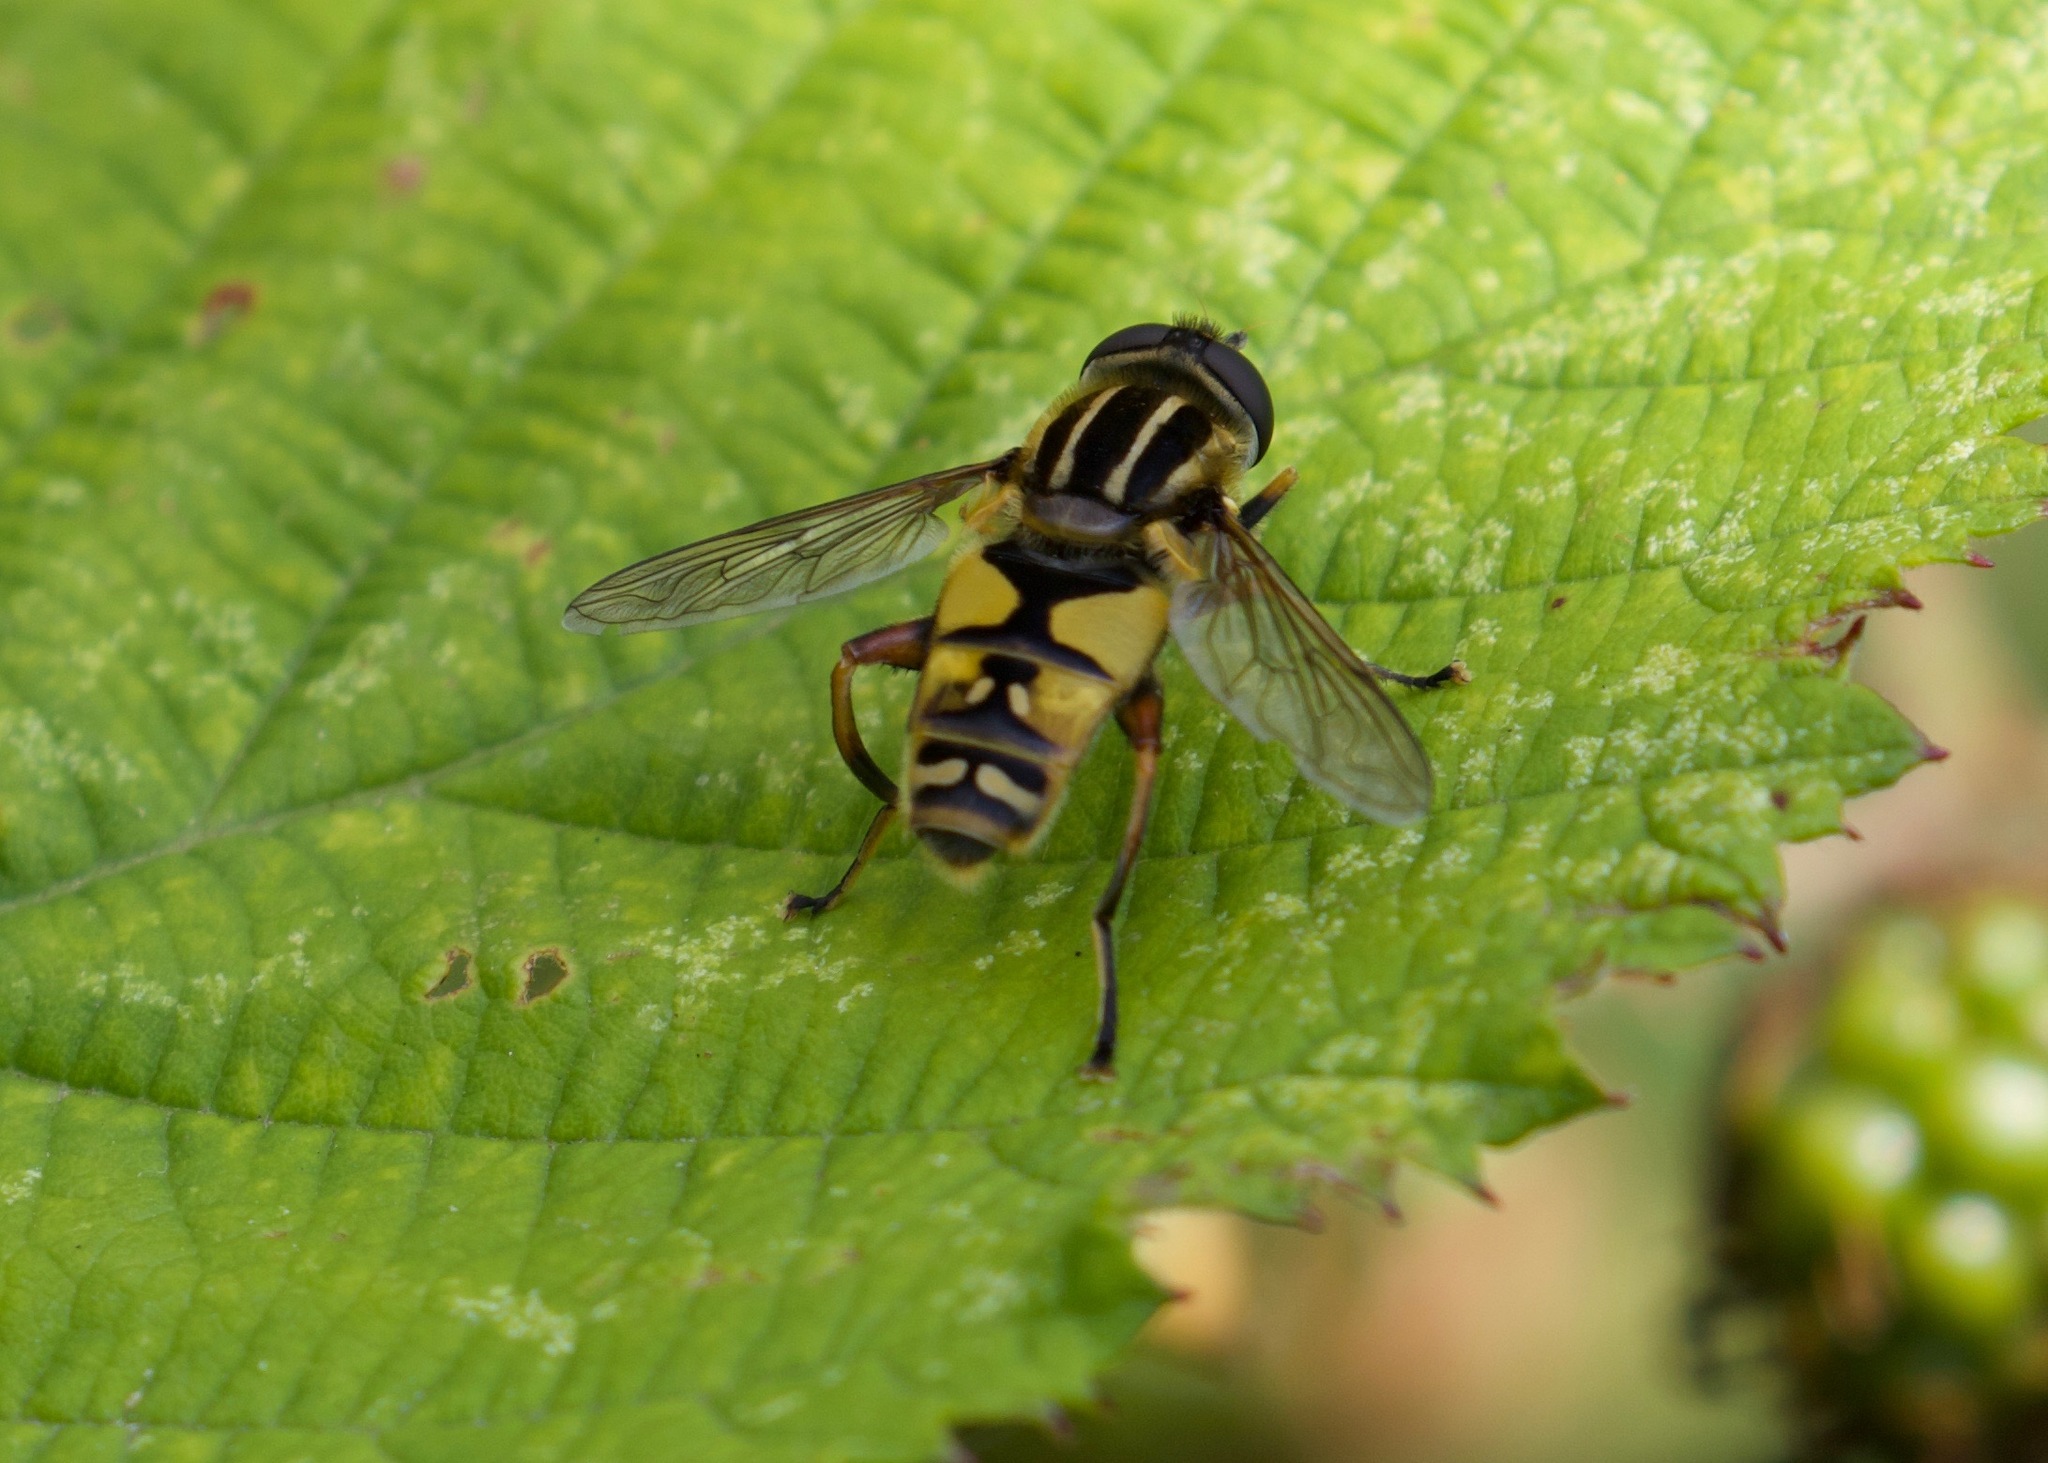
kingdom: Animalia
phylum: Arthropoda
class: Insecta
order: Diptera
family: Syrphidae
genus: Helophilus
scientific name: Helophilus pendulus
